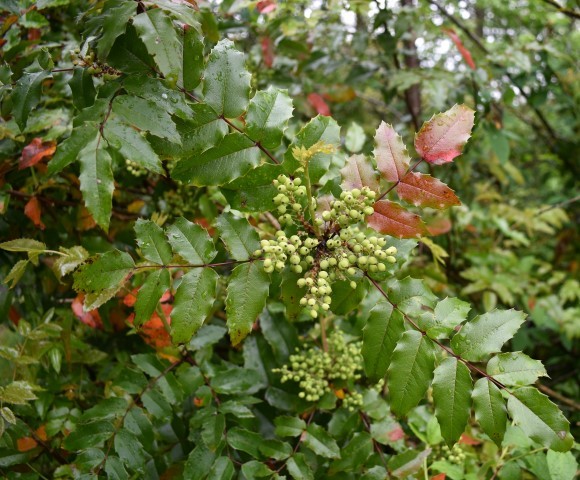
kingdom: Plantae
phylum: Tracheophyta
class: Magnoliopsida
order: Ranunculales
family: Berberidaceae
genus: Mahonia
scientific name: Mahonia aquifolium
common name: Oregon-grape
